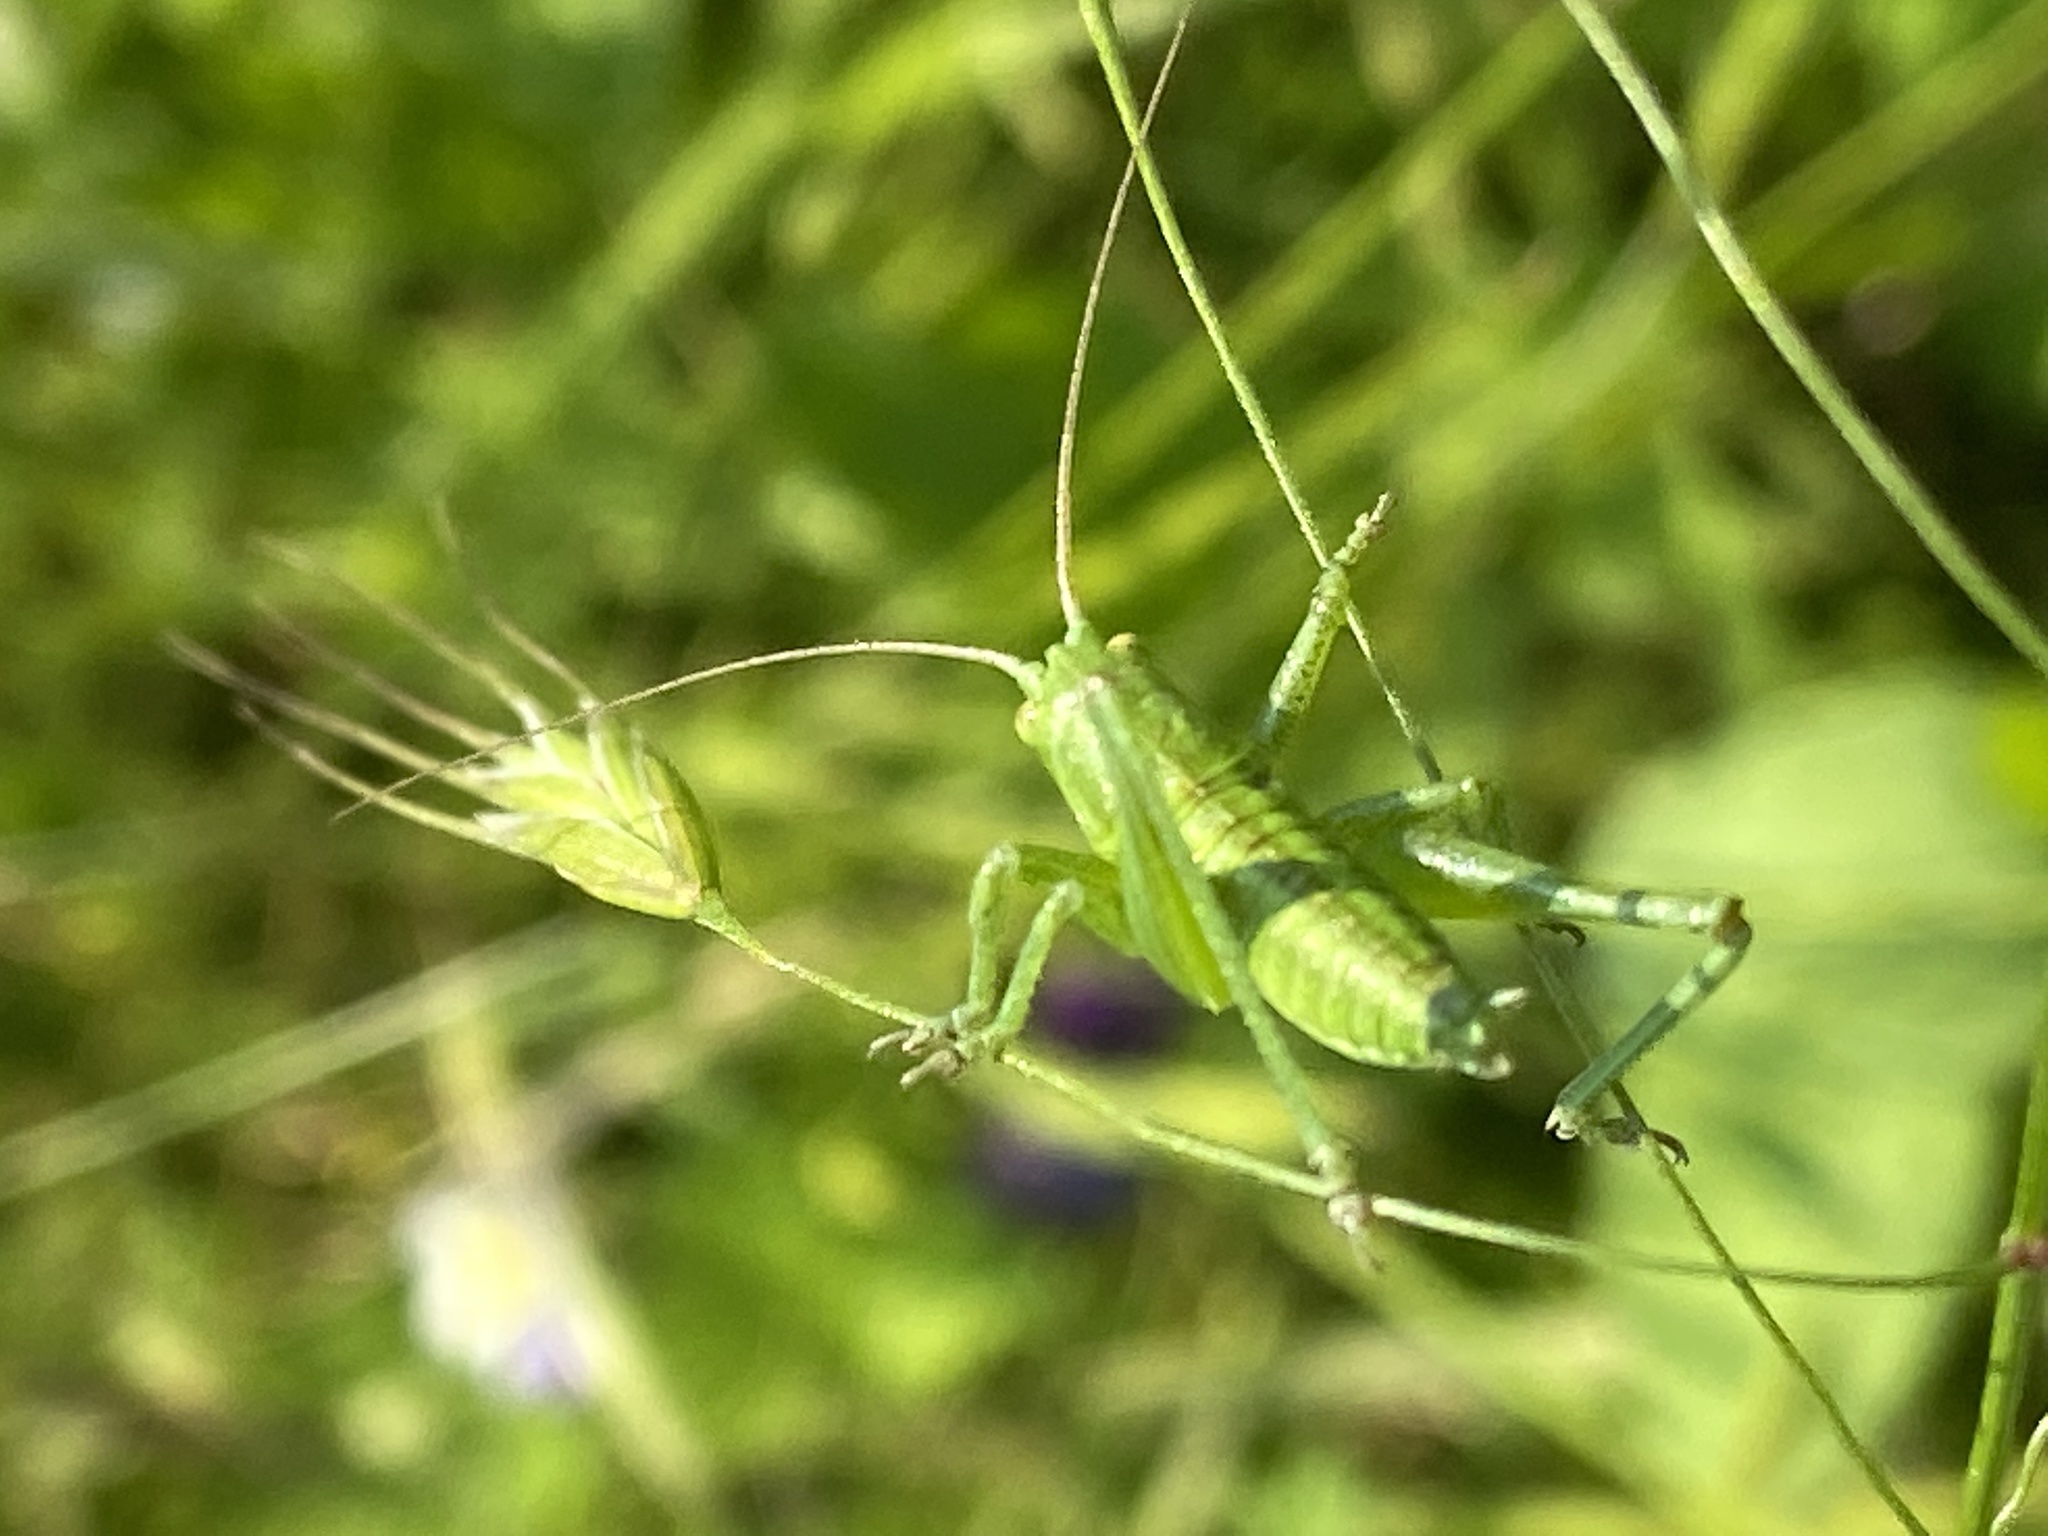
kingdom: Animalia
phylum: Arthropoda
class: Insecta
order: Orthoptera
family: Tettigoniidae
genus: Tettigonia
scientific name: Tettigonia viridissima
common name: Great green bush-cricket
